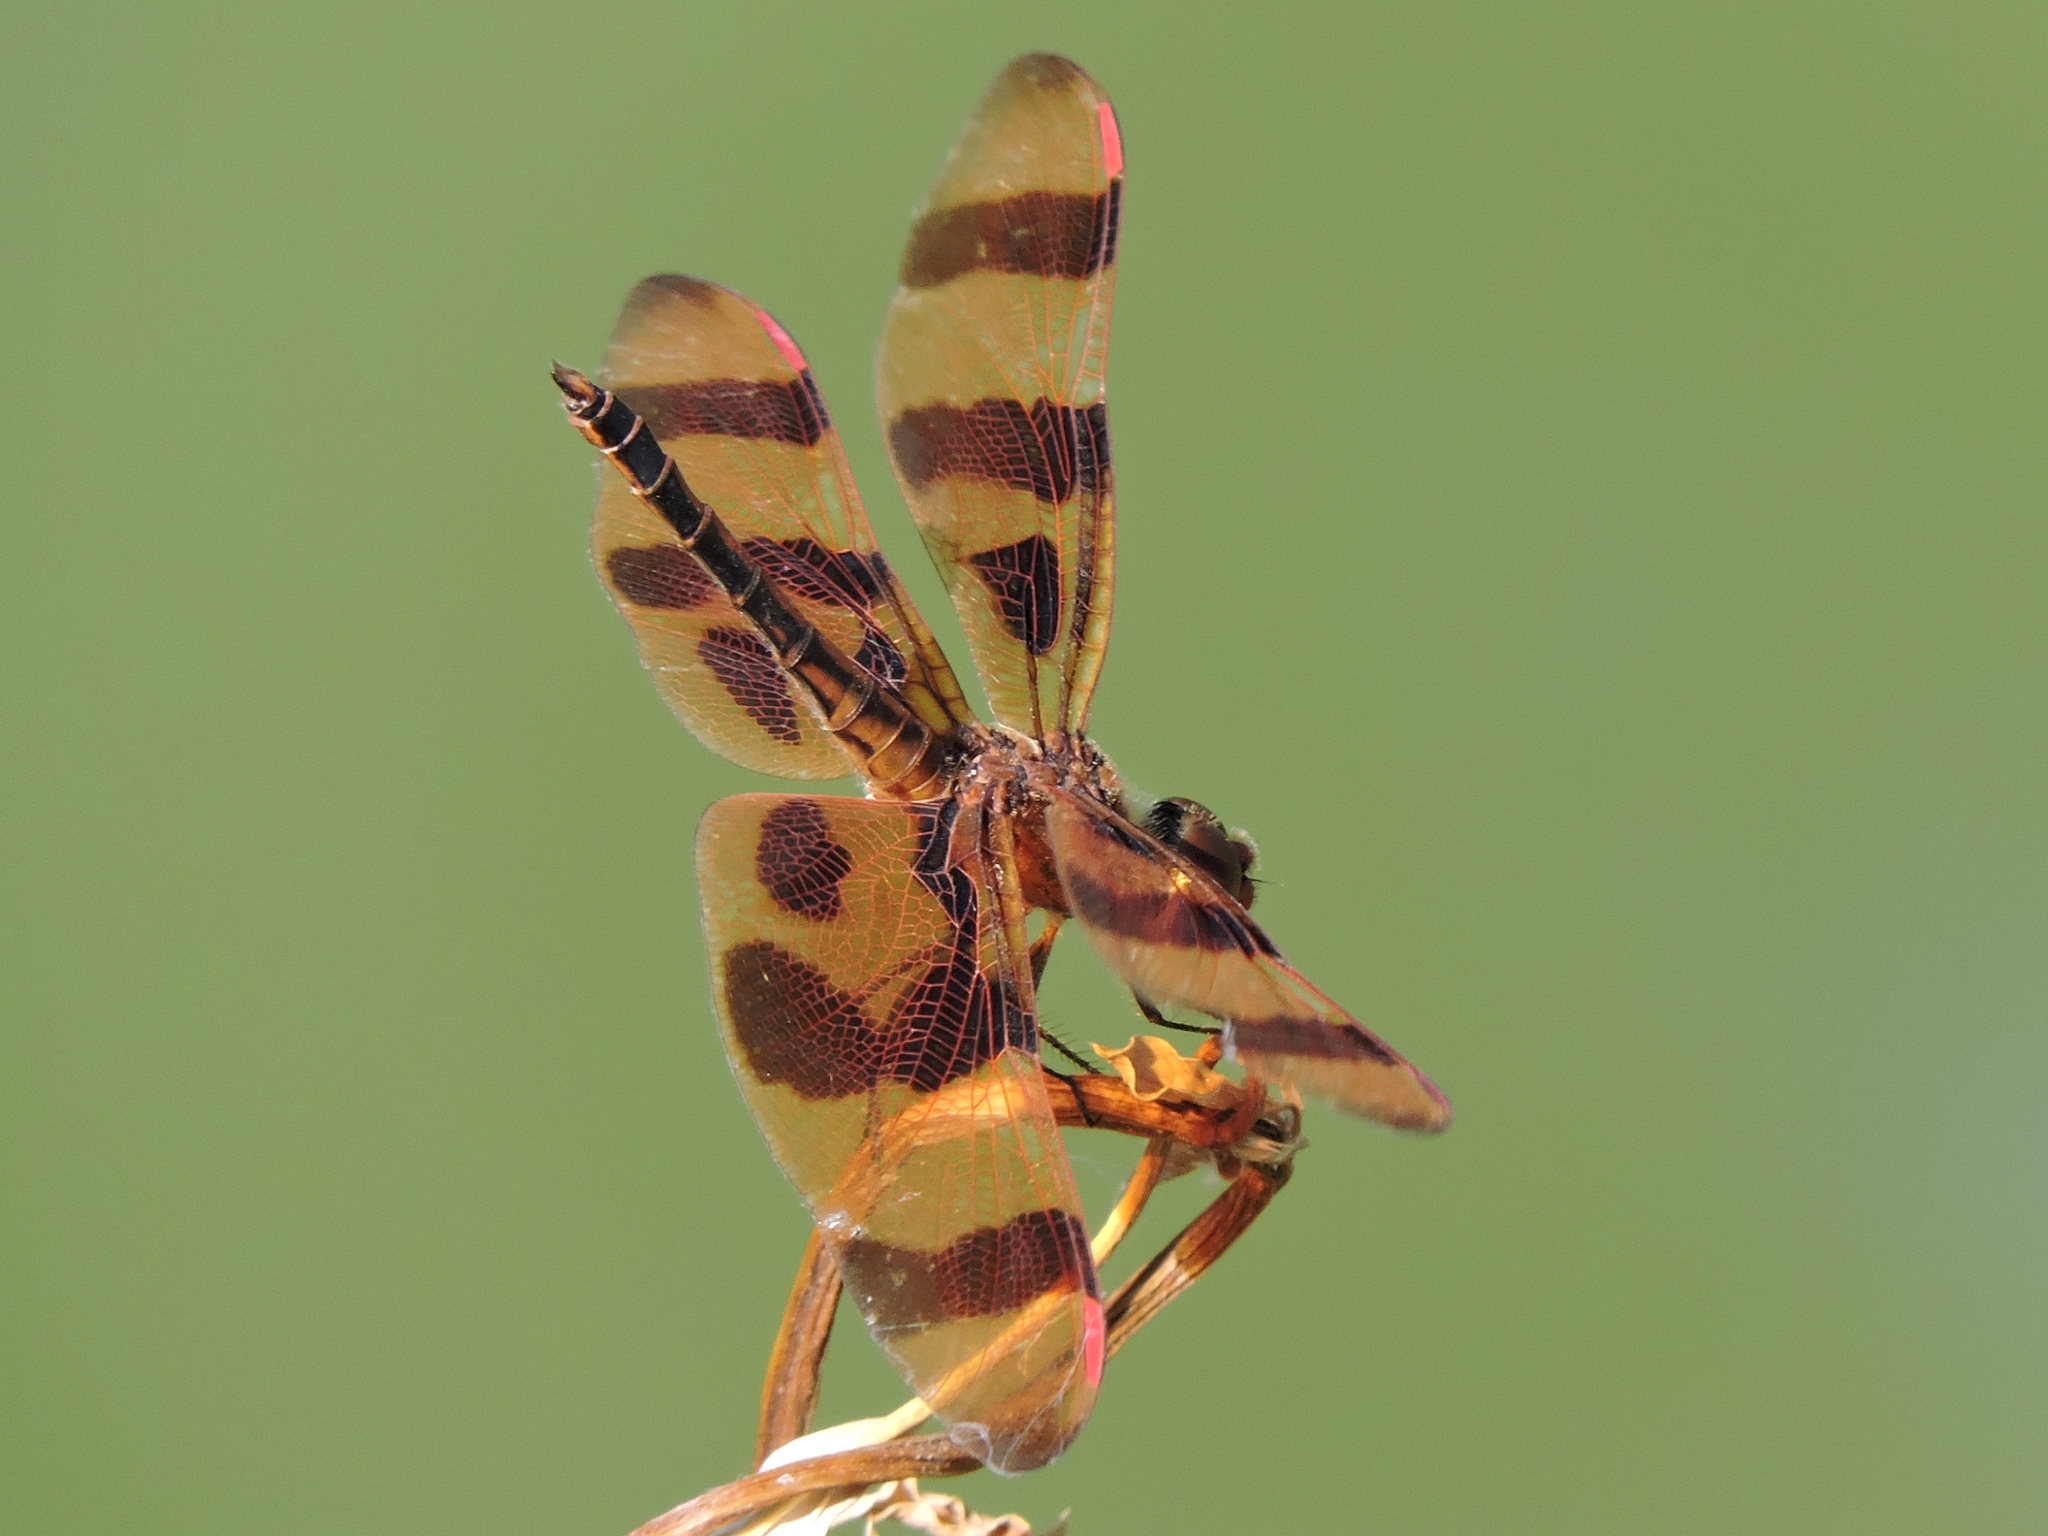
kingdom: Animalia
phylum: Arthropoda
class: Insecta
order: Odonata
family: Libellulidae
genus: Celithemis
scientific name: Celithemis eponina
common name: Halloween pennant
